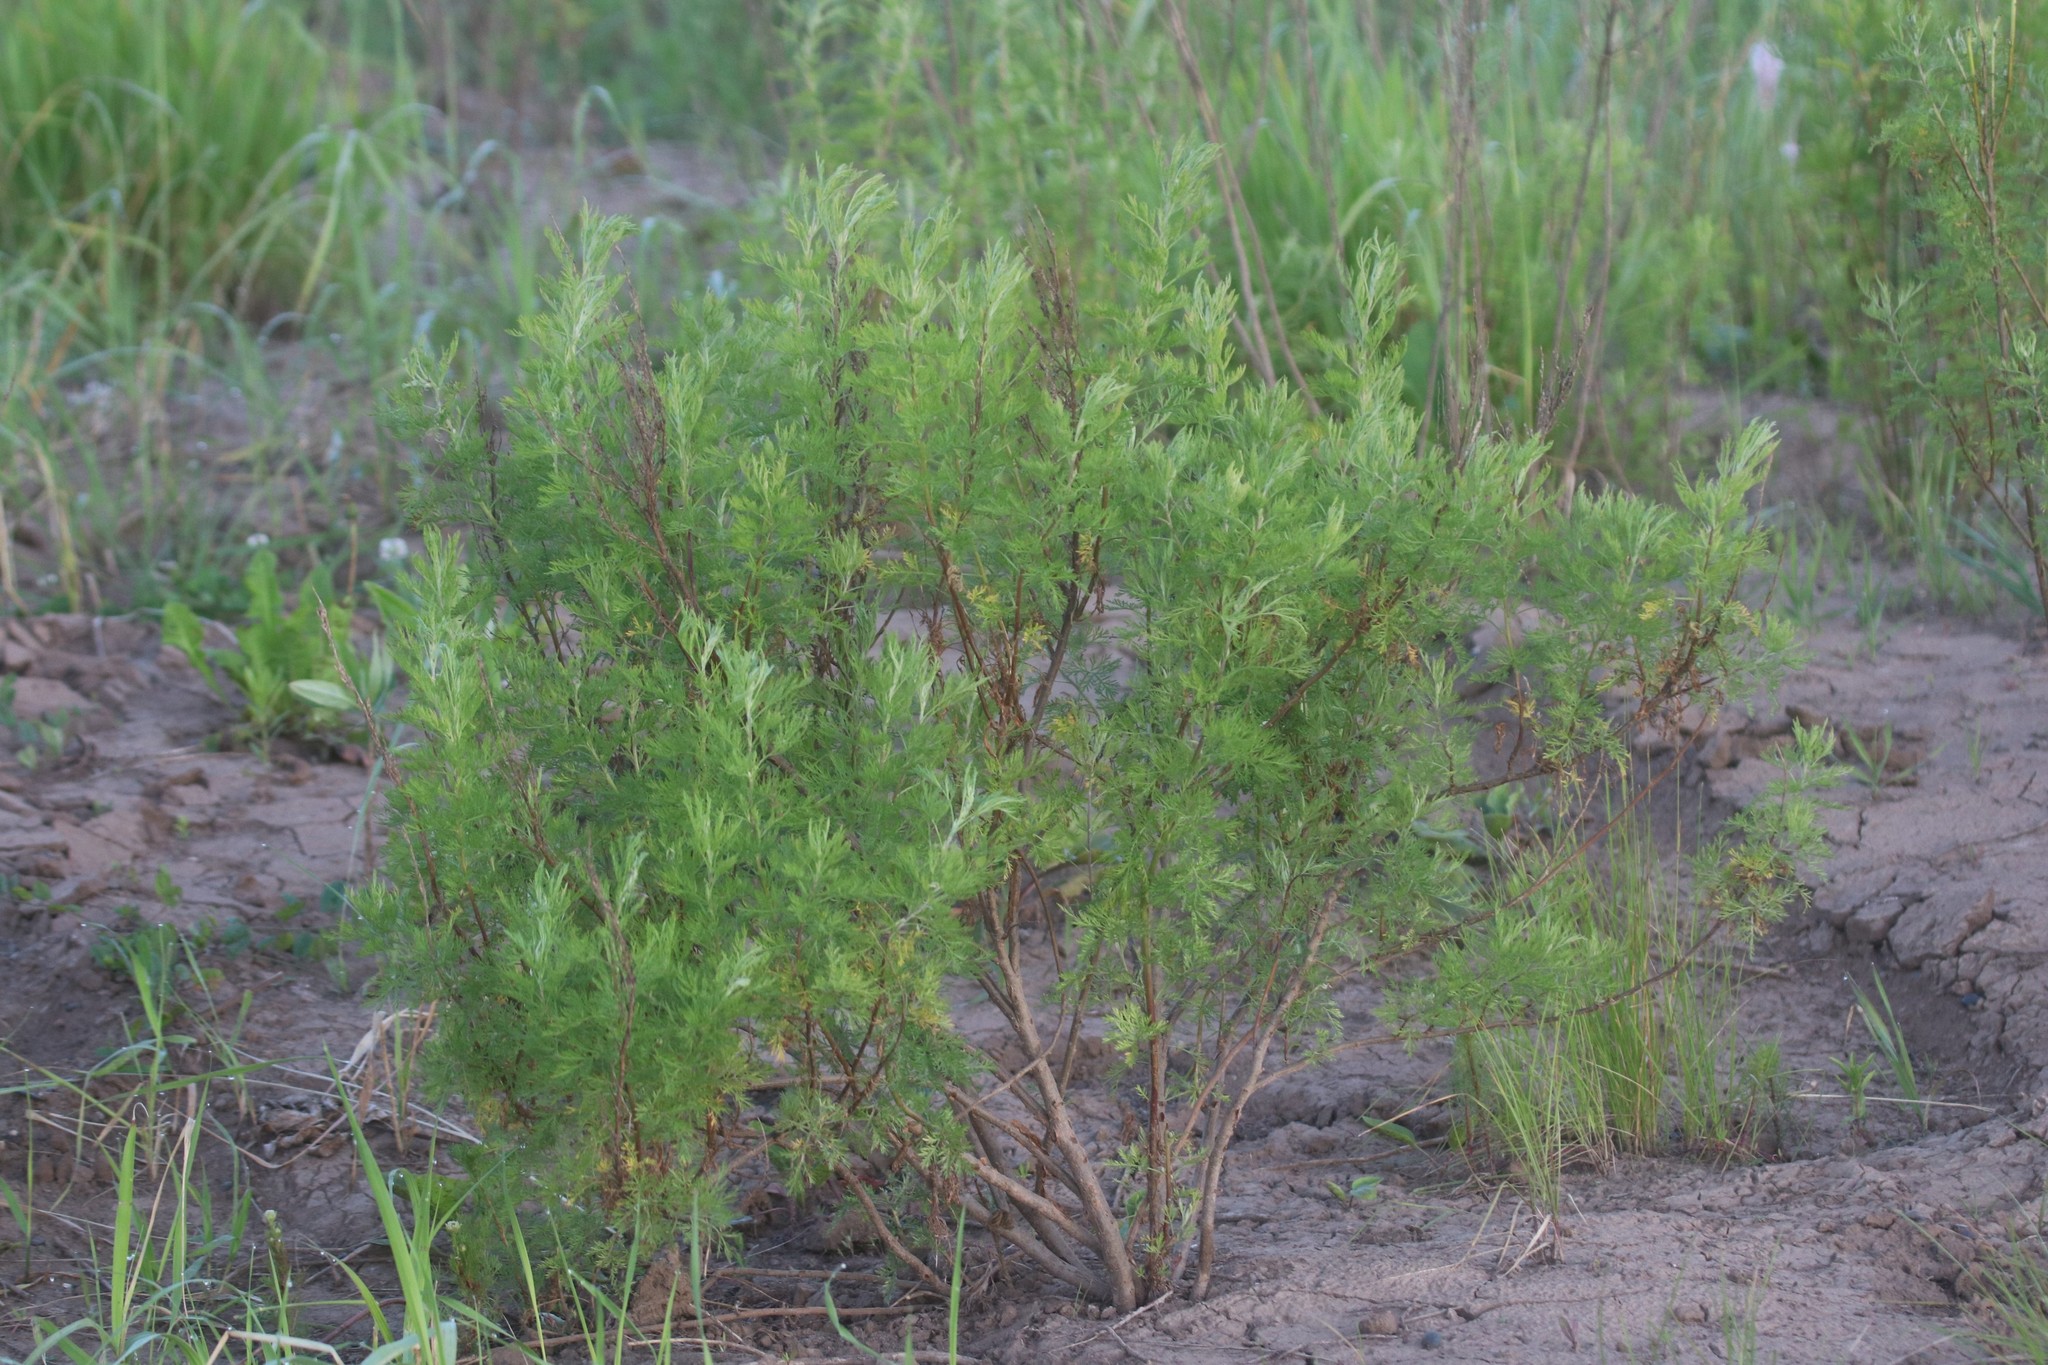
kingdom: Plantae
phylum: Tracheophyta
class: Magnoliopsida
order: Asterales
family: Asteraceae
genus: Artemisia
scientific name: Artemisia abrotanum
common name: Southernwood
